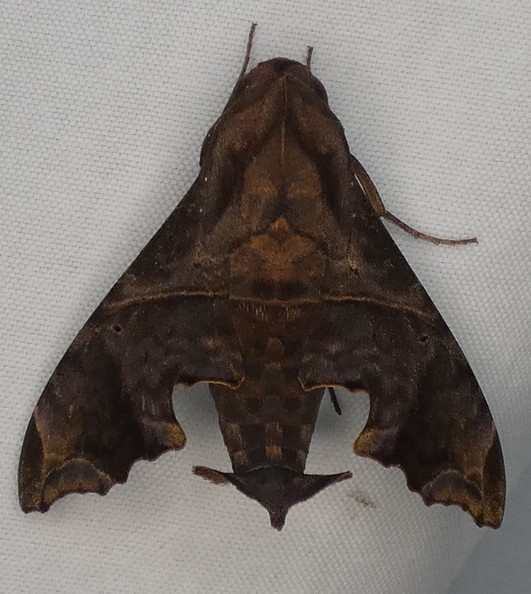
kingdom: Animalia
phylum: Arthropoda
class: Insecta
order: Lepidoptera
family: Sphingidae
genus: Enyo
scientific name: Enyo lugubris
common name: Mournful sphinx
